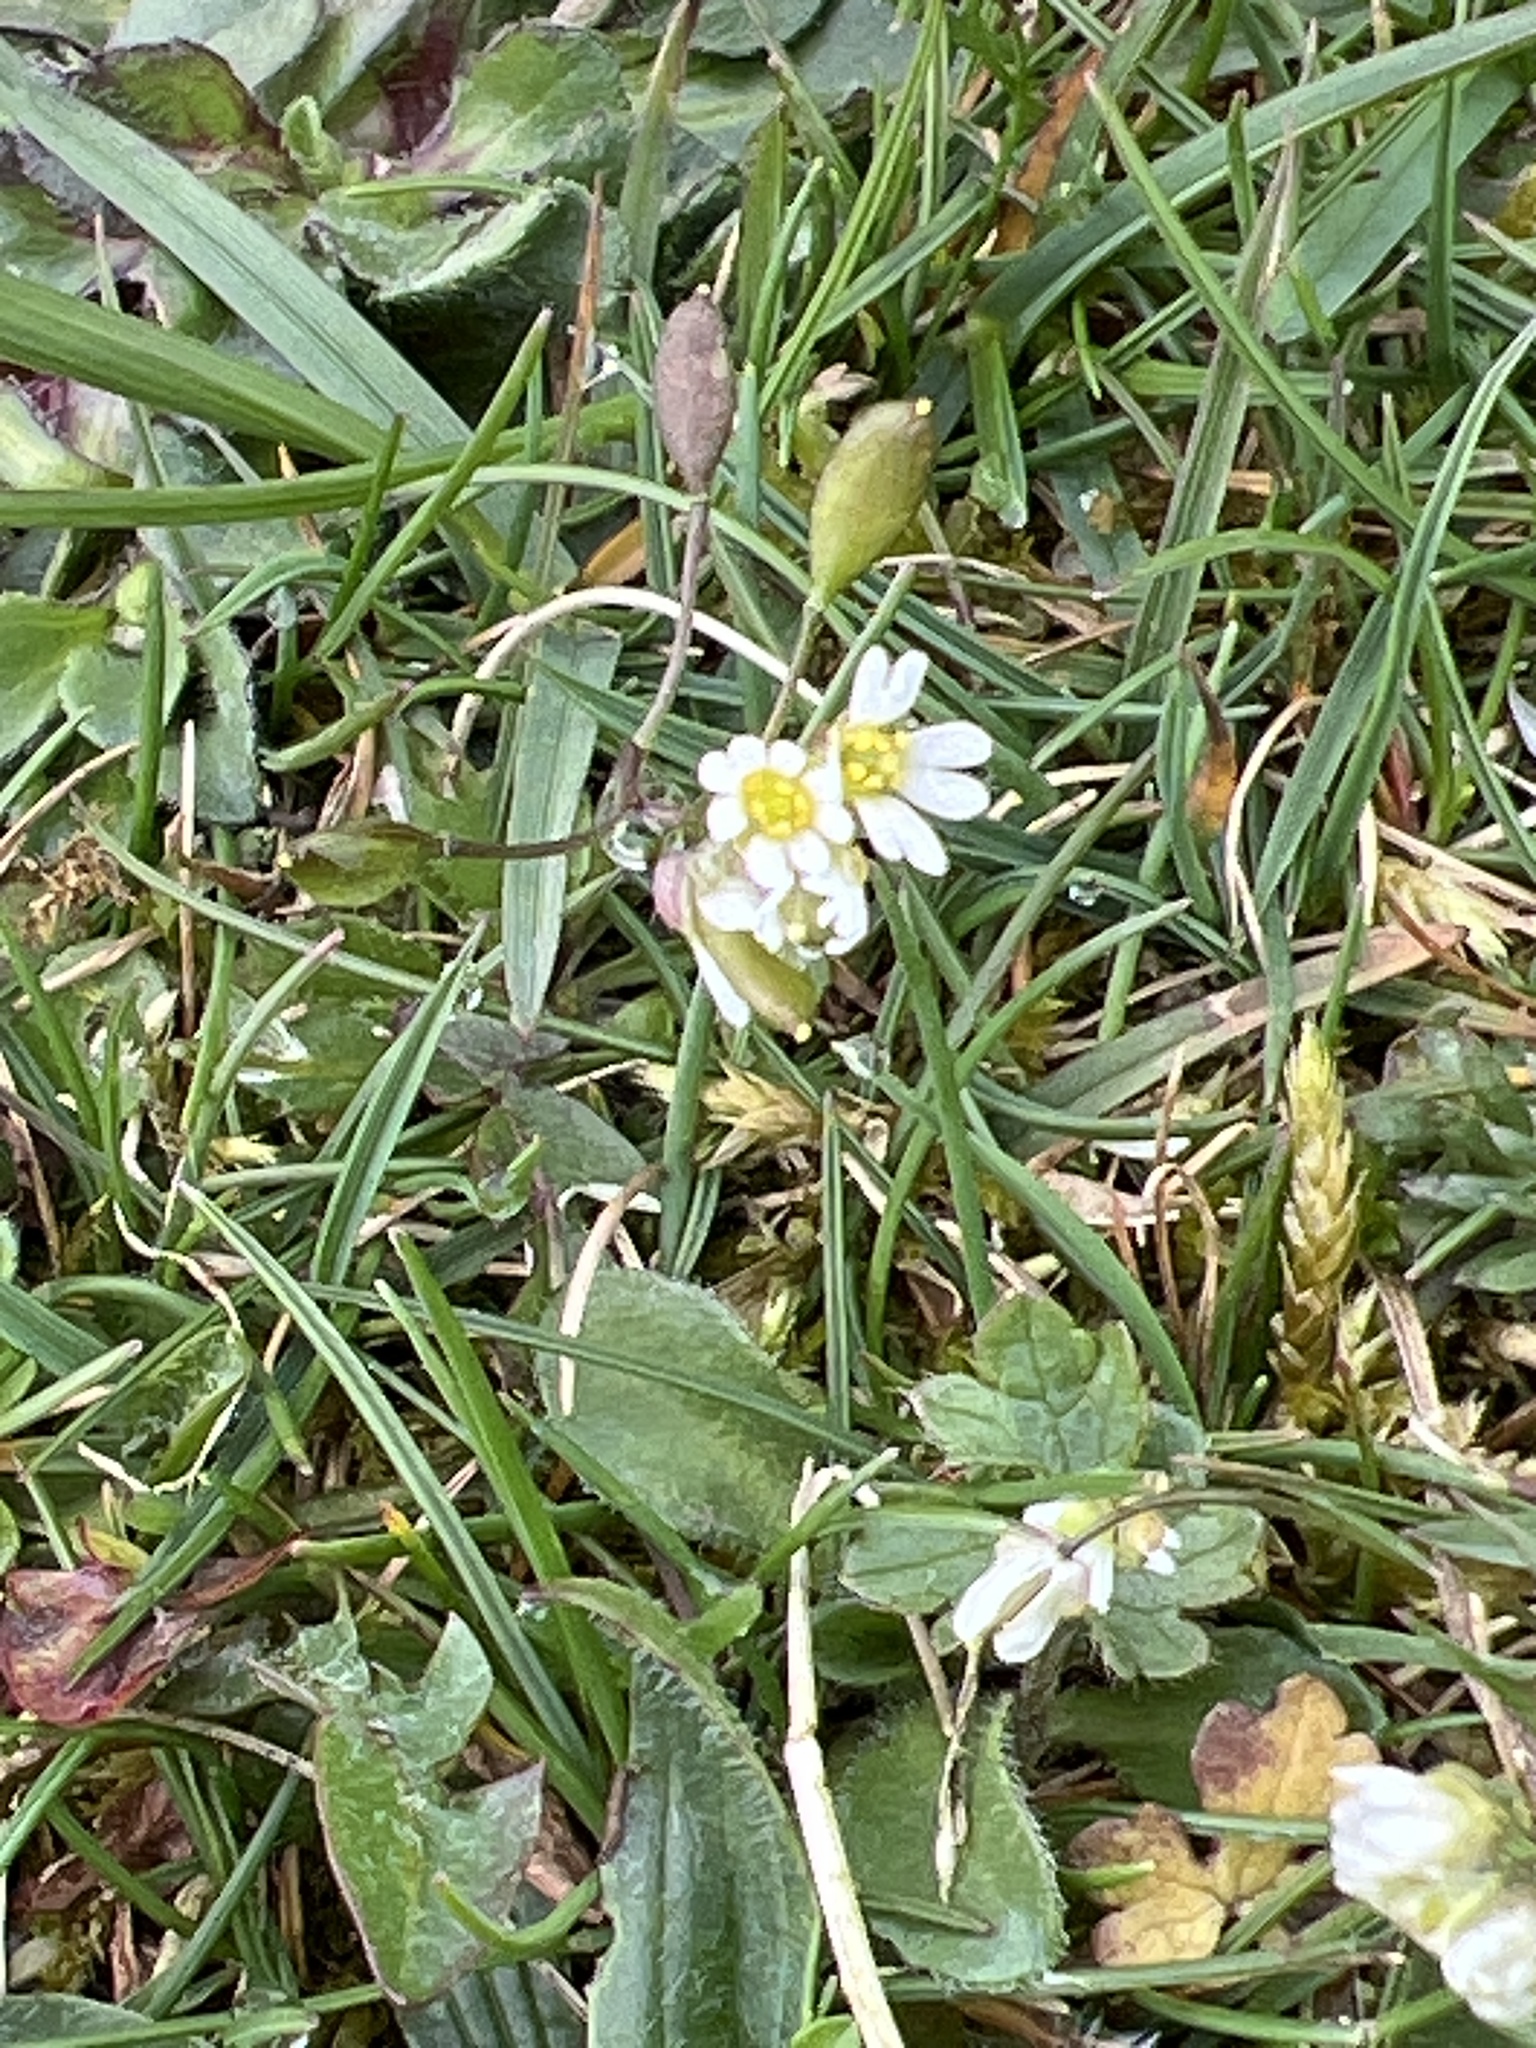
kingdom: Plantae
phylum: Tracheophyta
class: Magnoliopsida
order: Brassicales
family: Brassicaceae
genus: Draba
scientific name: Draba verna
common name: Spring draba
